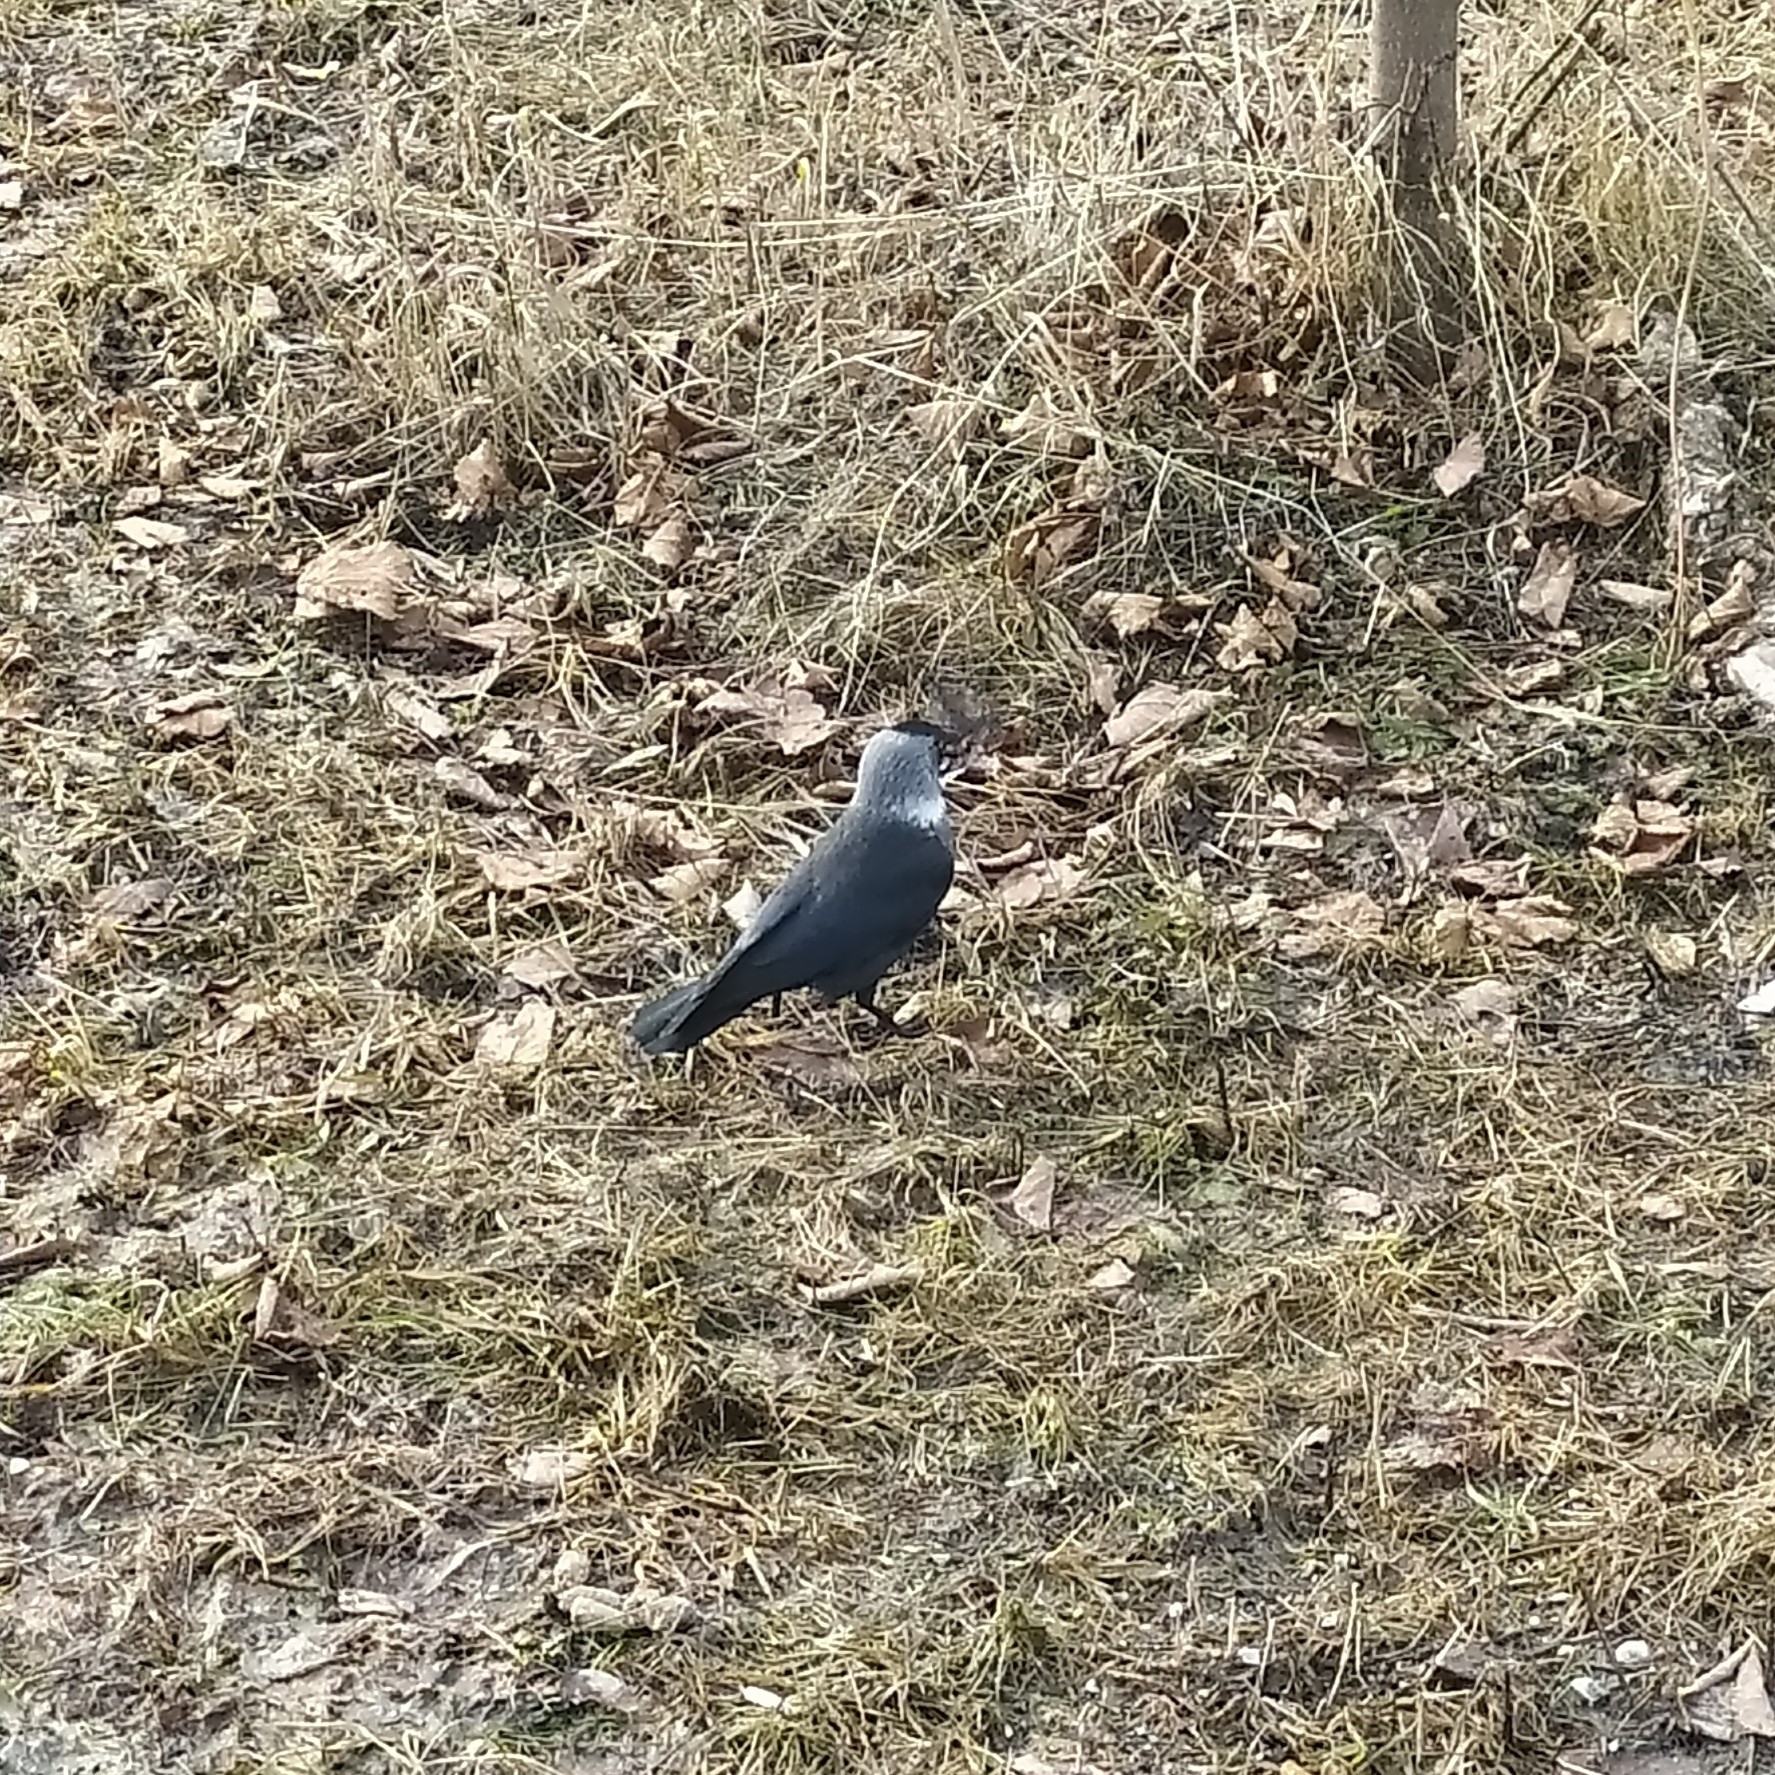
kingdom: Animalia
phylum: Chordata
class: Aves
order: Passeriformes
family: Corvidae
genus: Coloeus
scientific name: Coloeus monedula
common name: Western jackdaw
